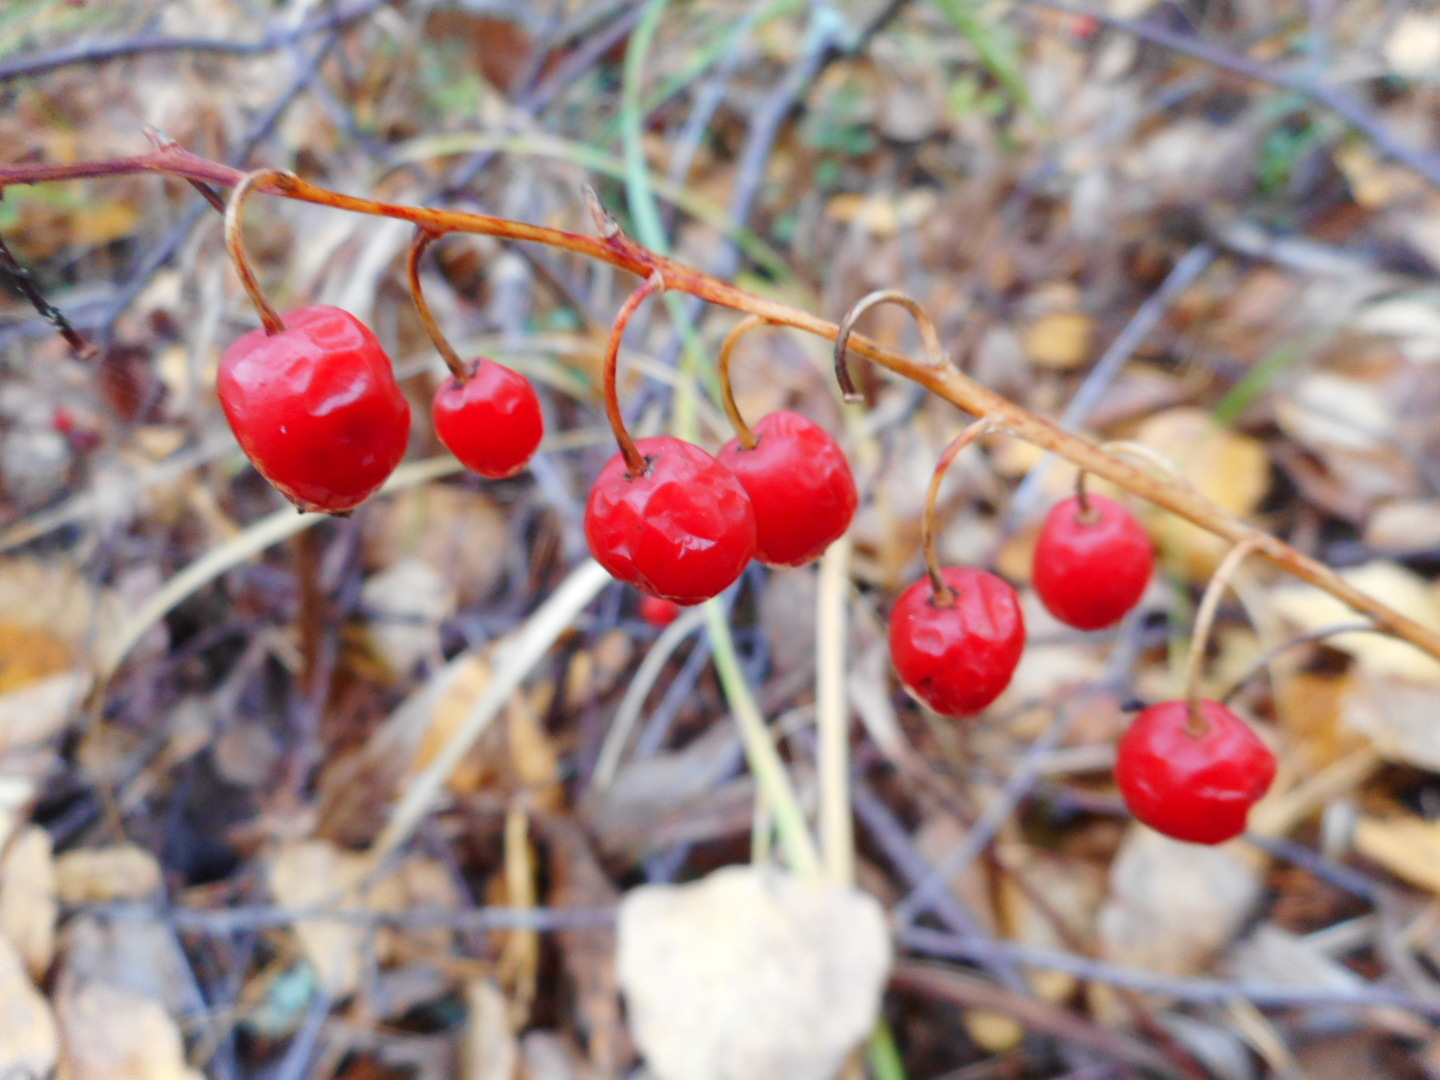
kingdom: Plantae
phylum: Tracheophyta
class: Liliopsida
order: Asparagales
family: Asparagaceae
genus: Convallaria
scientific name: Convallaria majalis
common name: Lily-of-the-valley
